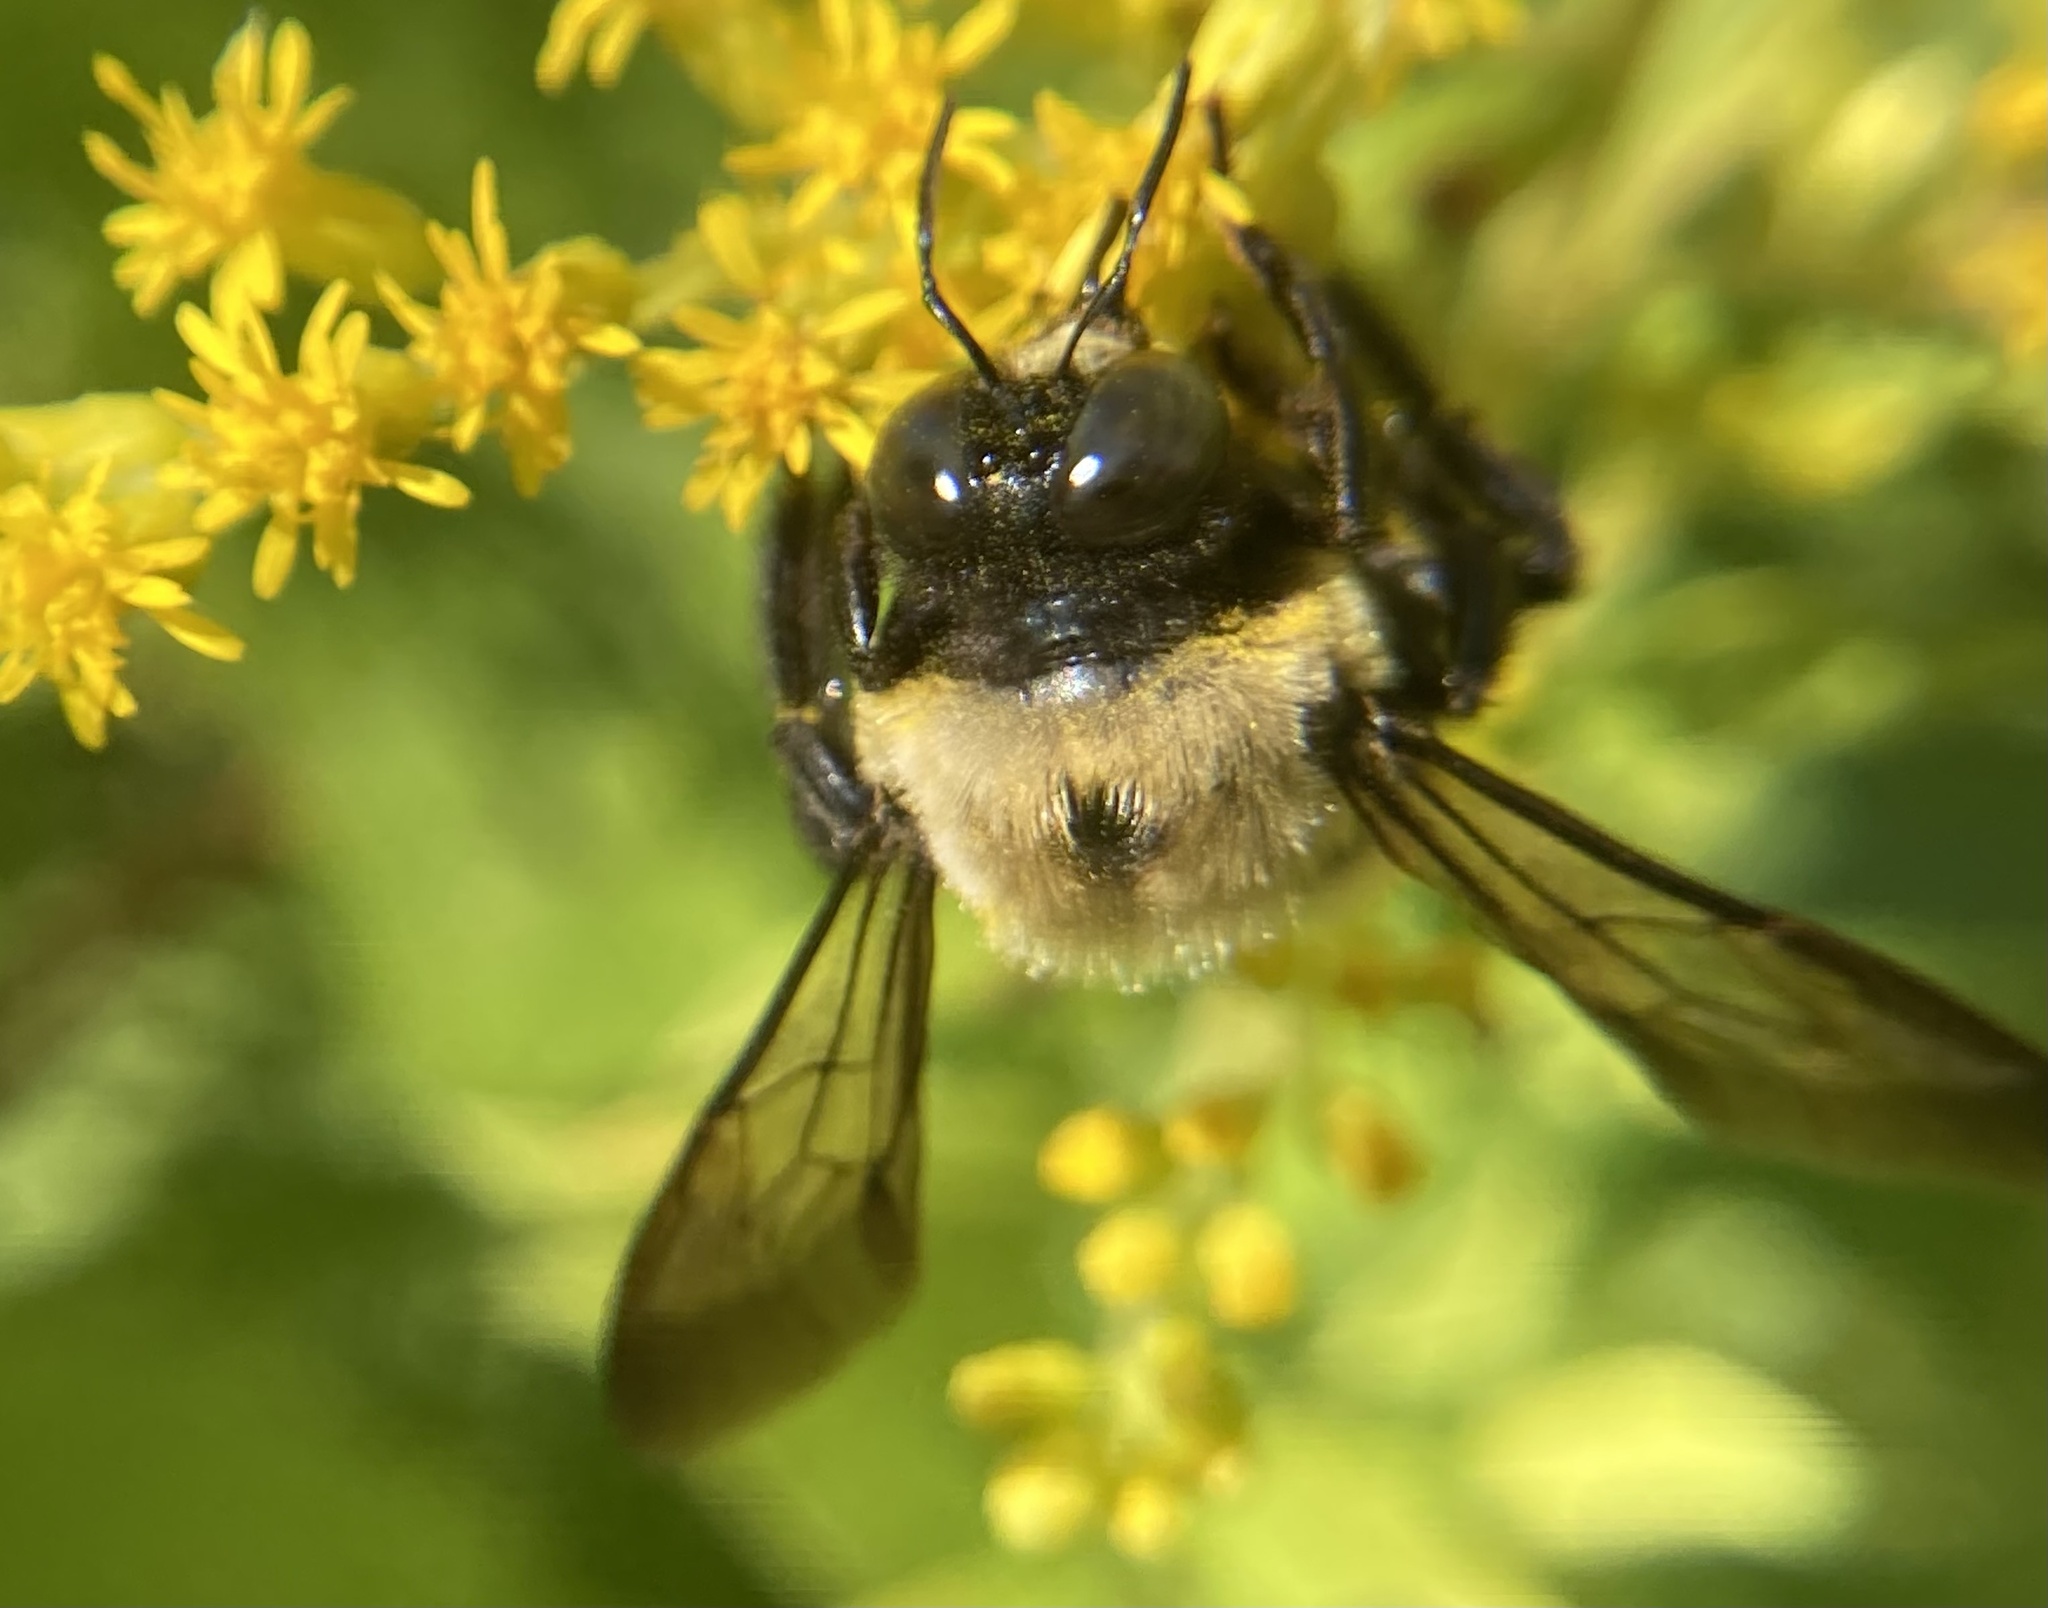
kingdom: Animalia
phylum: Arthropoda
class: Insecta
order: Hymenoptera
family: Apidae
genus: Xylocopa
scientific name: Xylocopa virginica
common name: Carpenter bee
